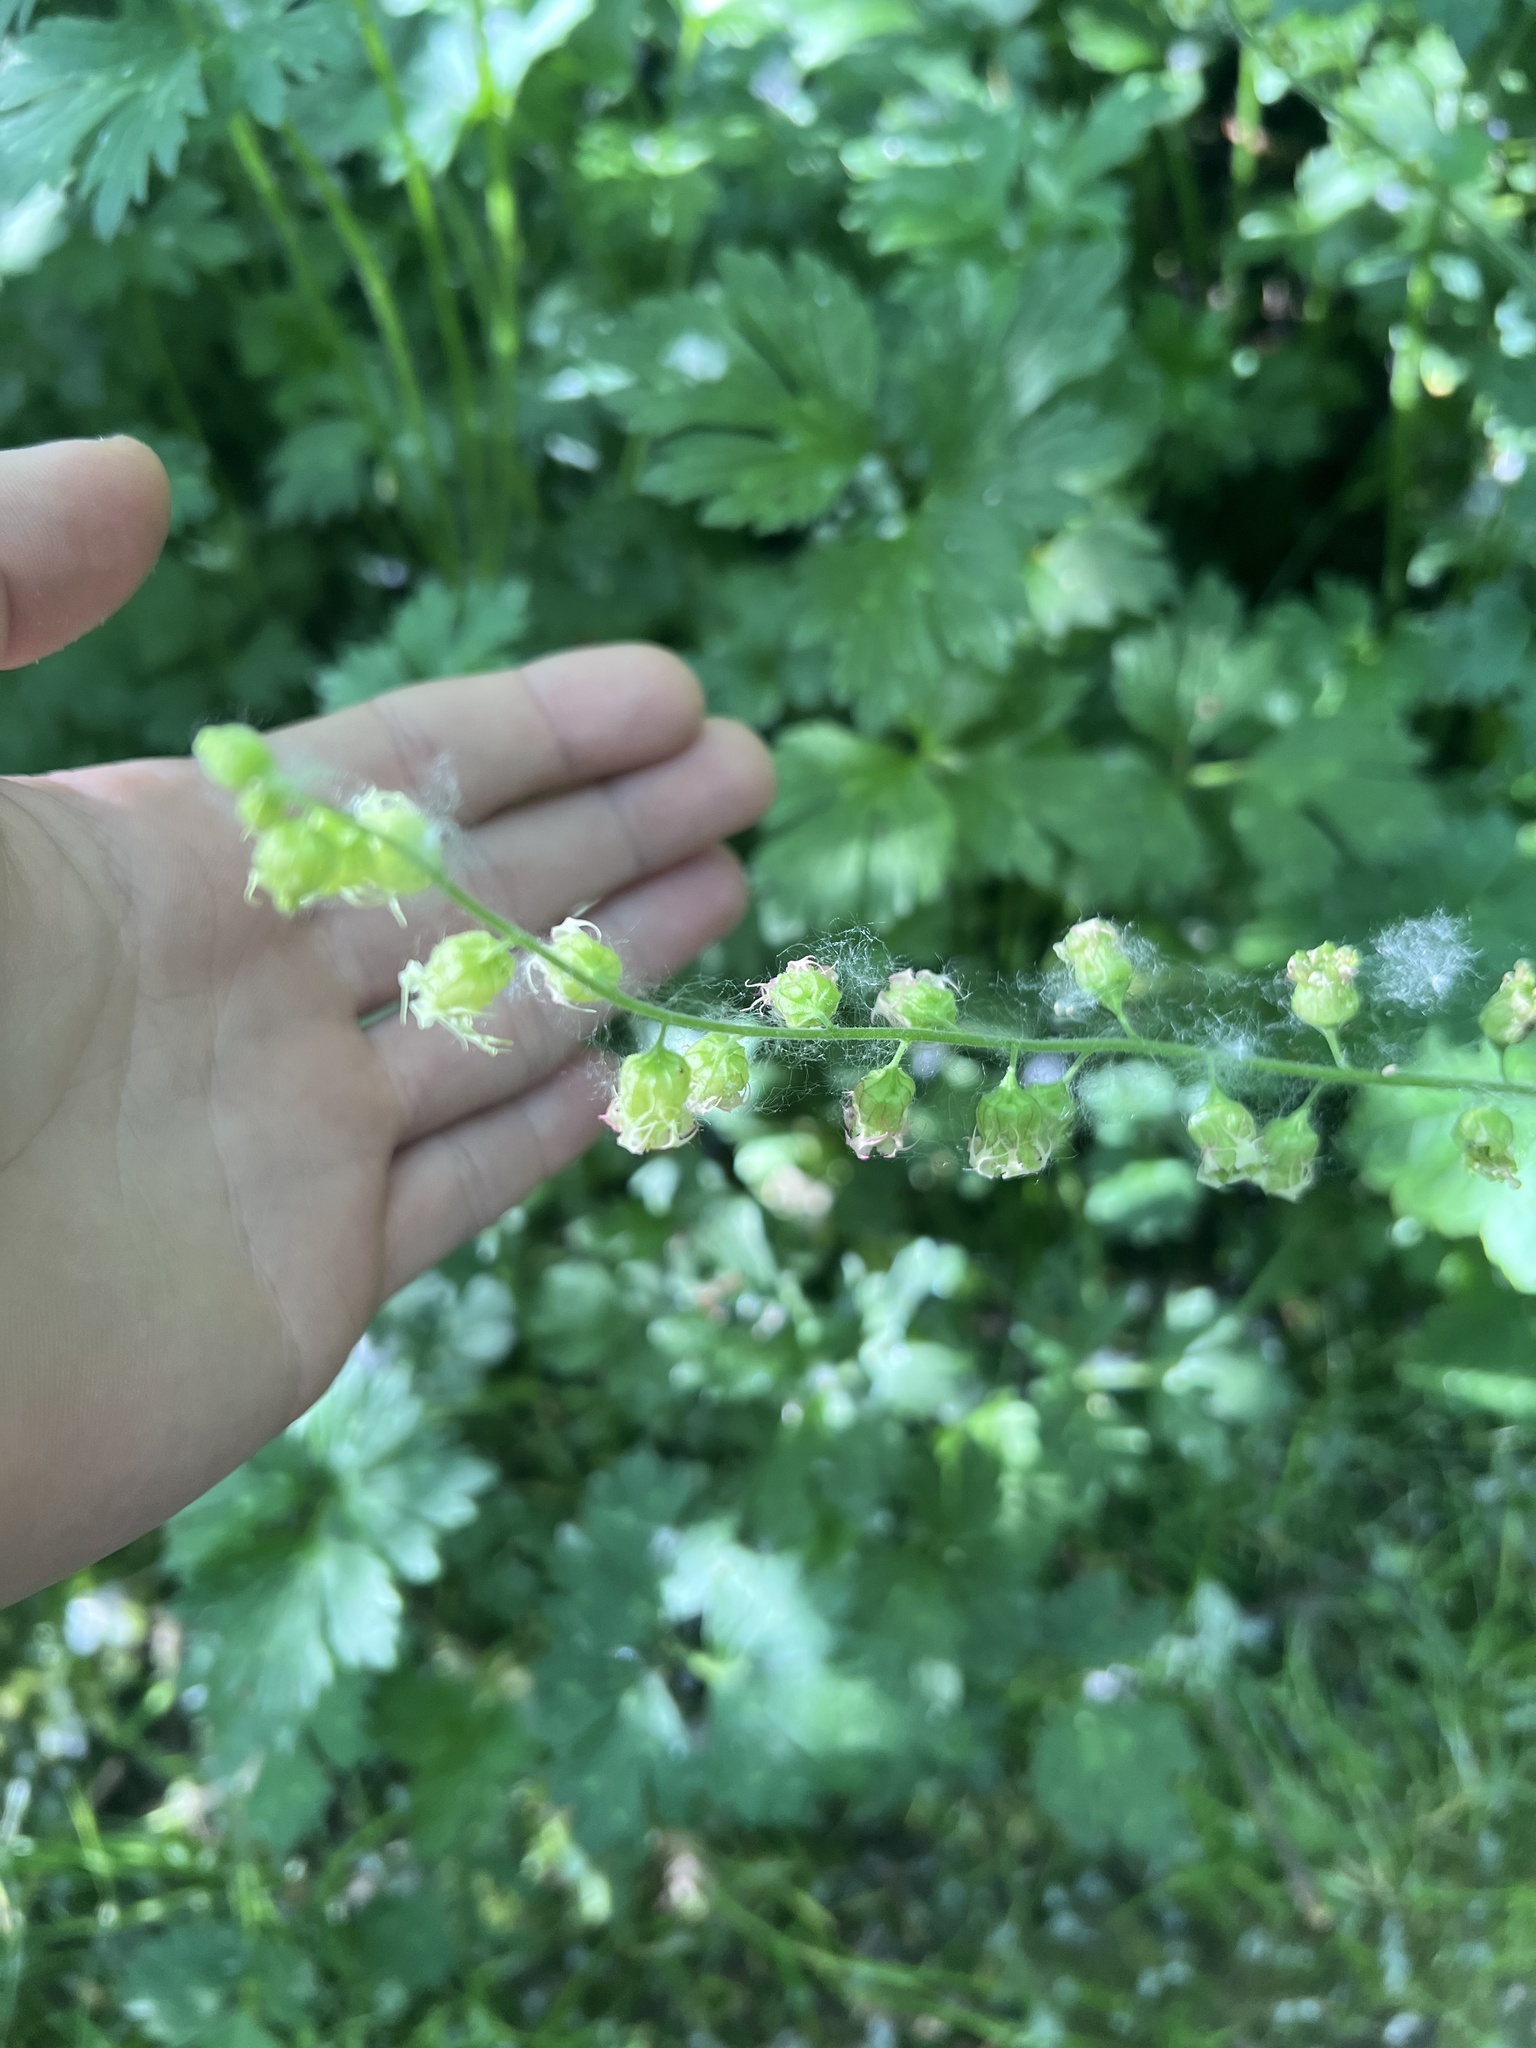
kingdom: Plantae
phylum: Tracheophyta
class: Magnoliopsida
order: Saxifragales
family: Saxifragaceae
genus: Tellima
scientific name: Tellima grandiflora
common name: Fringecups
